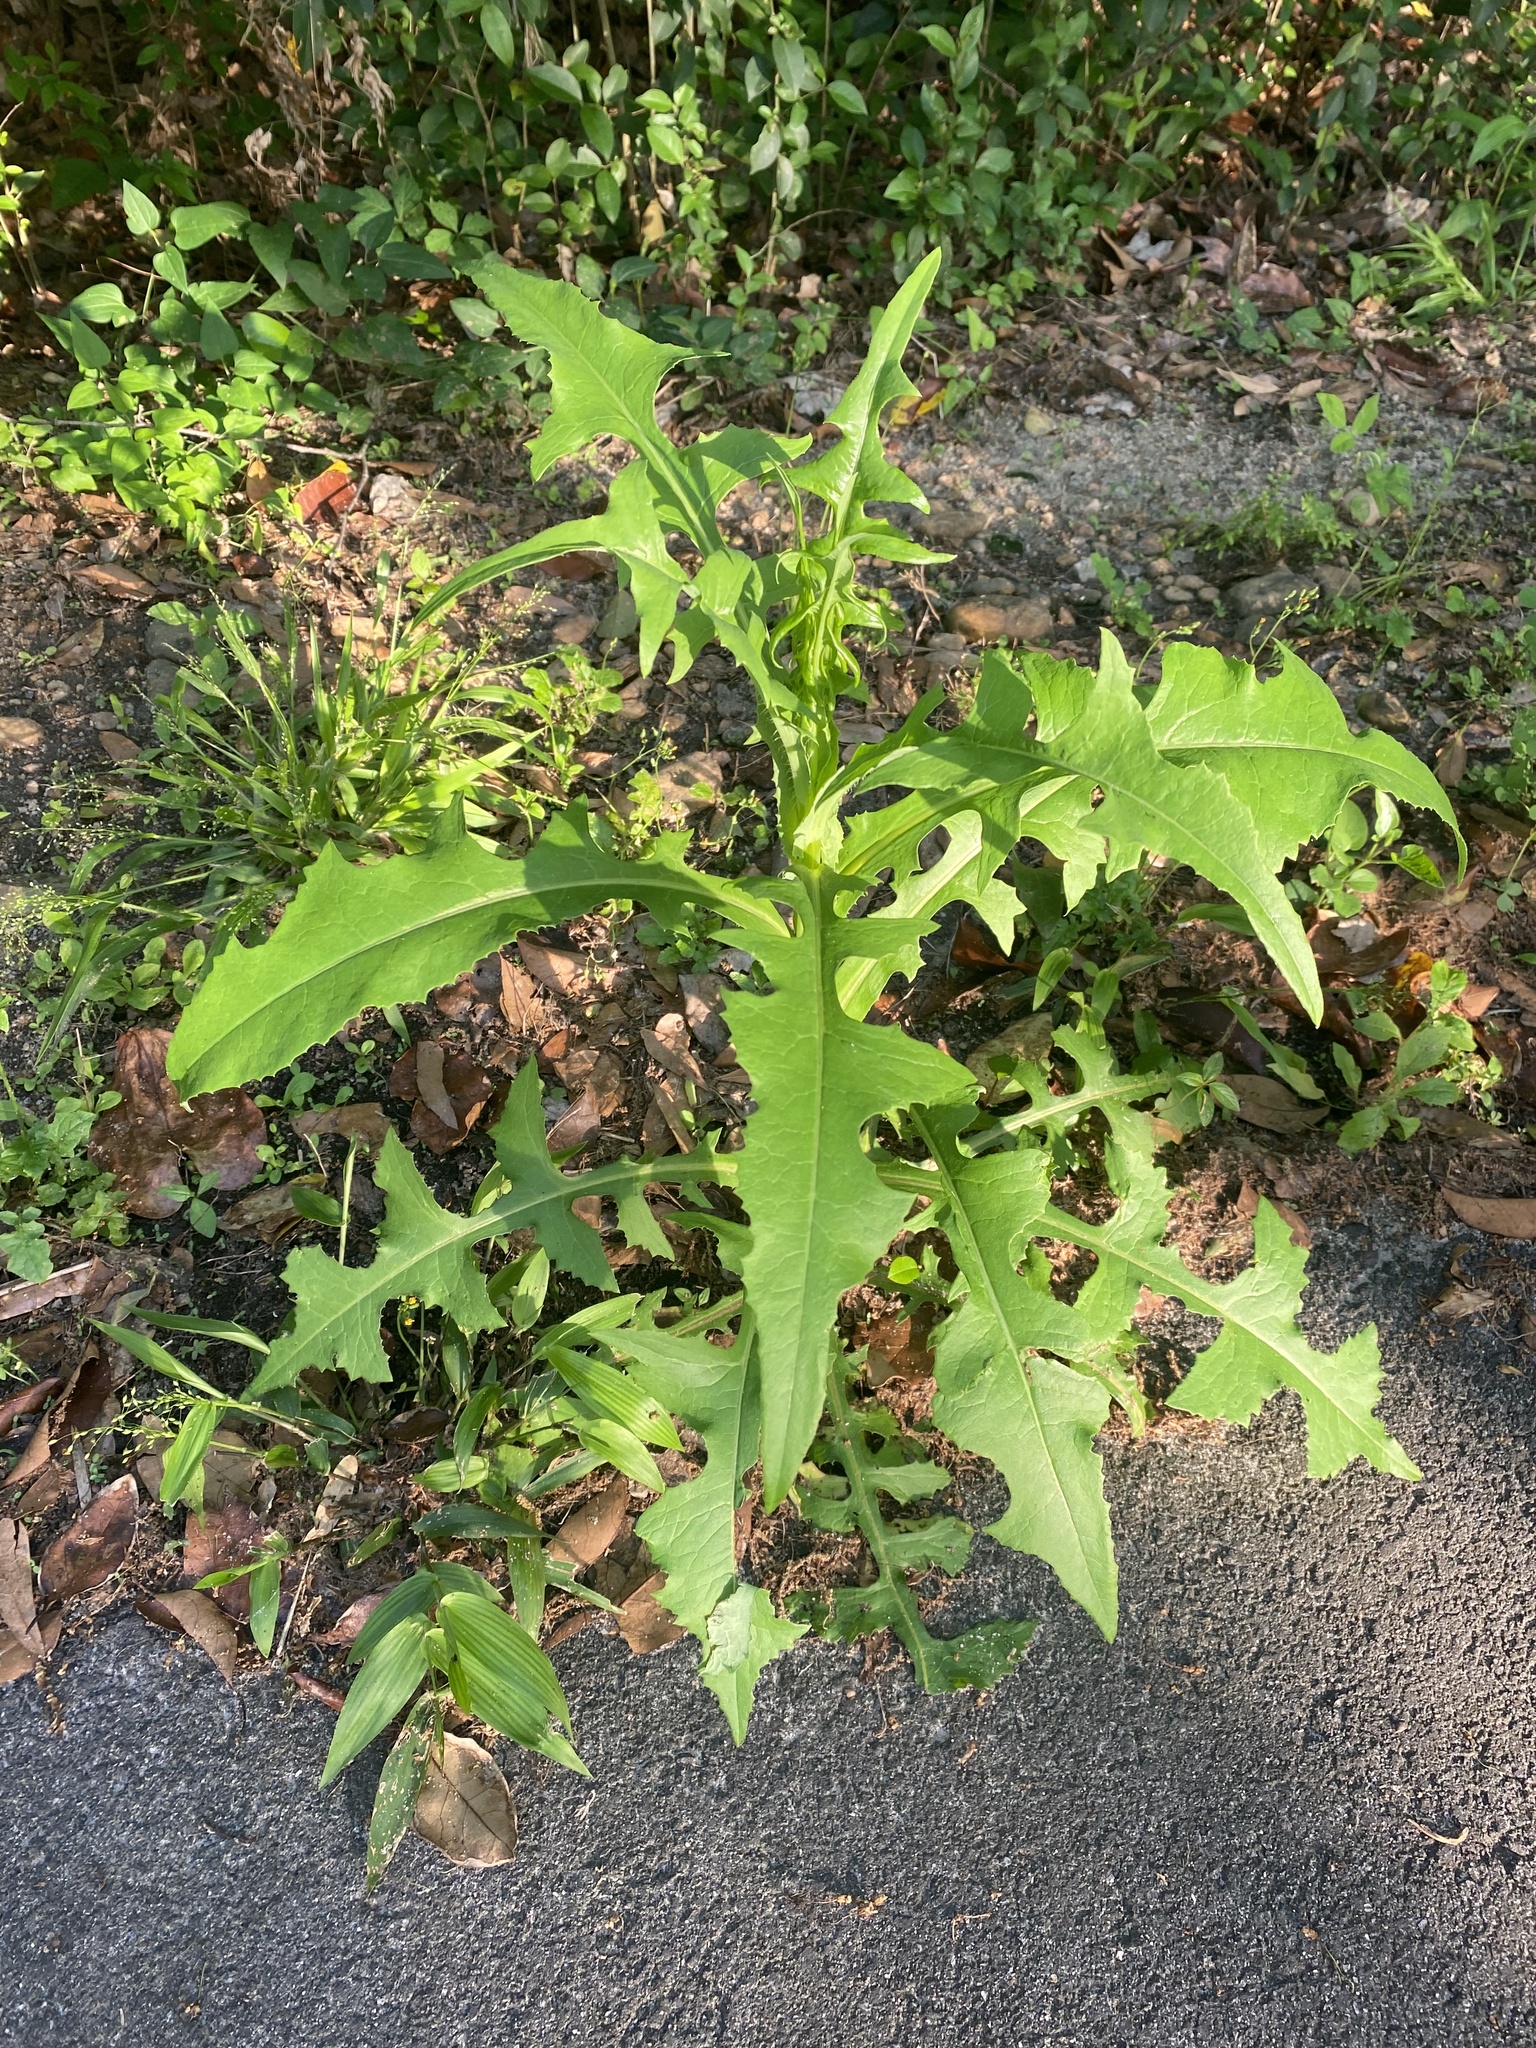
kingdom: Plantae
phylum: Tracheophyta
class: Magnoliopsida
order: Asterales
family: Asteraceae
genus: Hypochaeris
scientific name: Hypochaeris chillensis
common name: Brazilian cat's ear
